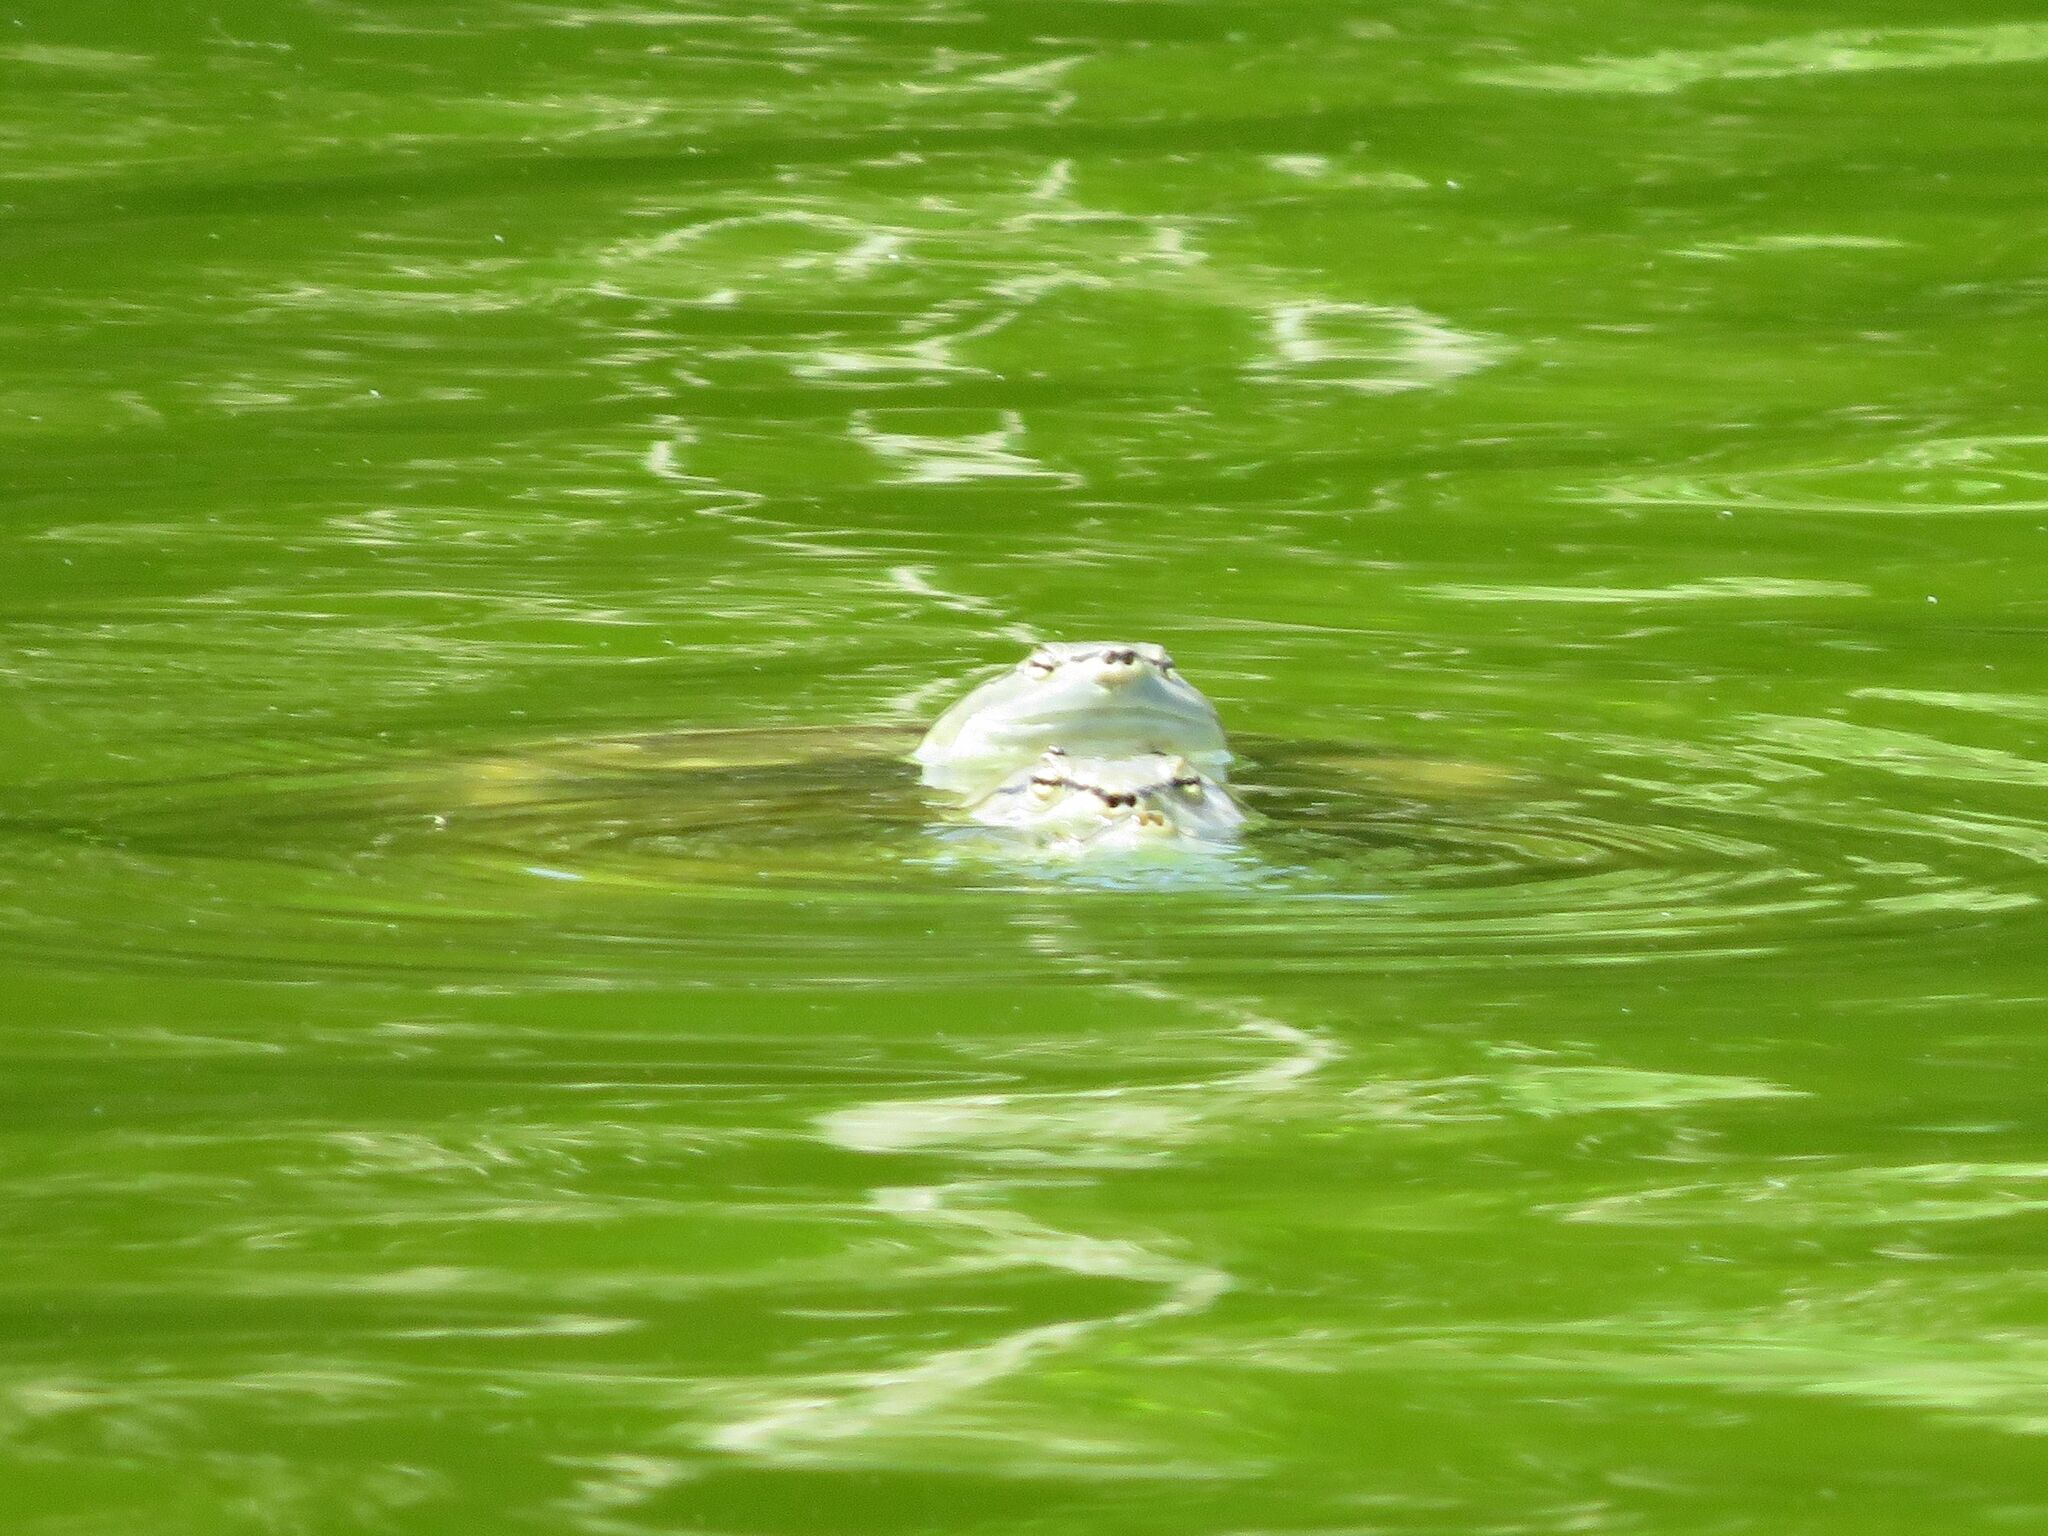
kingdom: Animalia
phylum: Chordata
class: Testudines
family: Chelidae
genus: Phrynops
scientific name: Phrynops hilarii
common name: Side-necked turtle of saint hillaire
